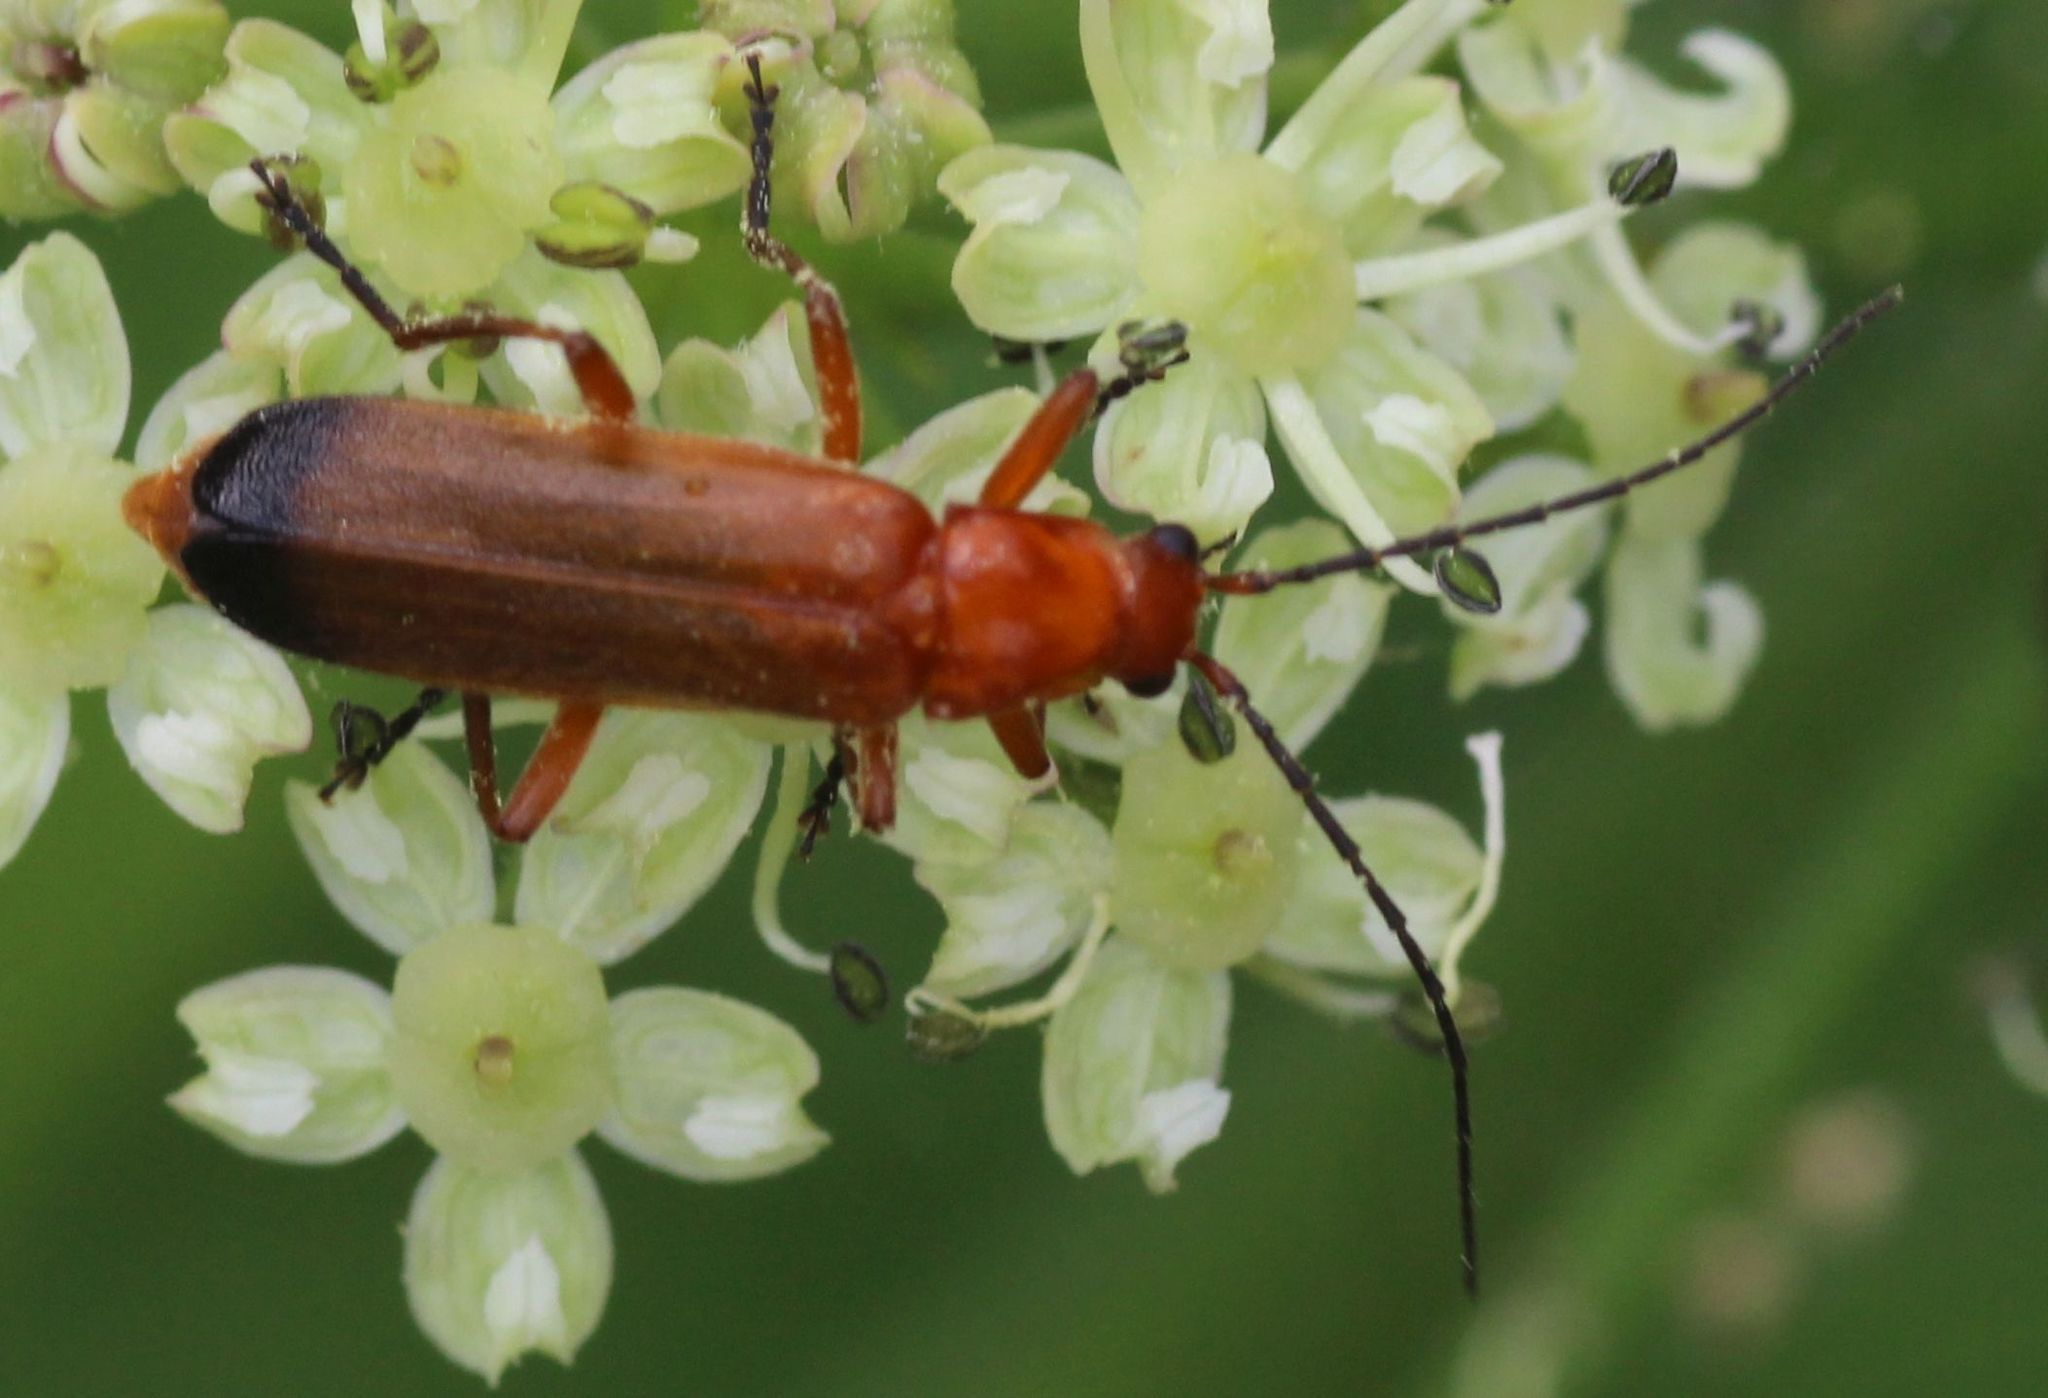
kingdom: Animalia
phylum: Arthropoda
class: Insecta
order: Coleoptera
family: Cantharidae
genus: Rhagonycha
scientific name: Rhagonycha fulva
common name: Common red soldier beetle
